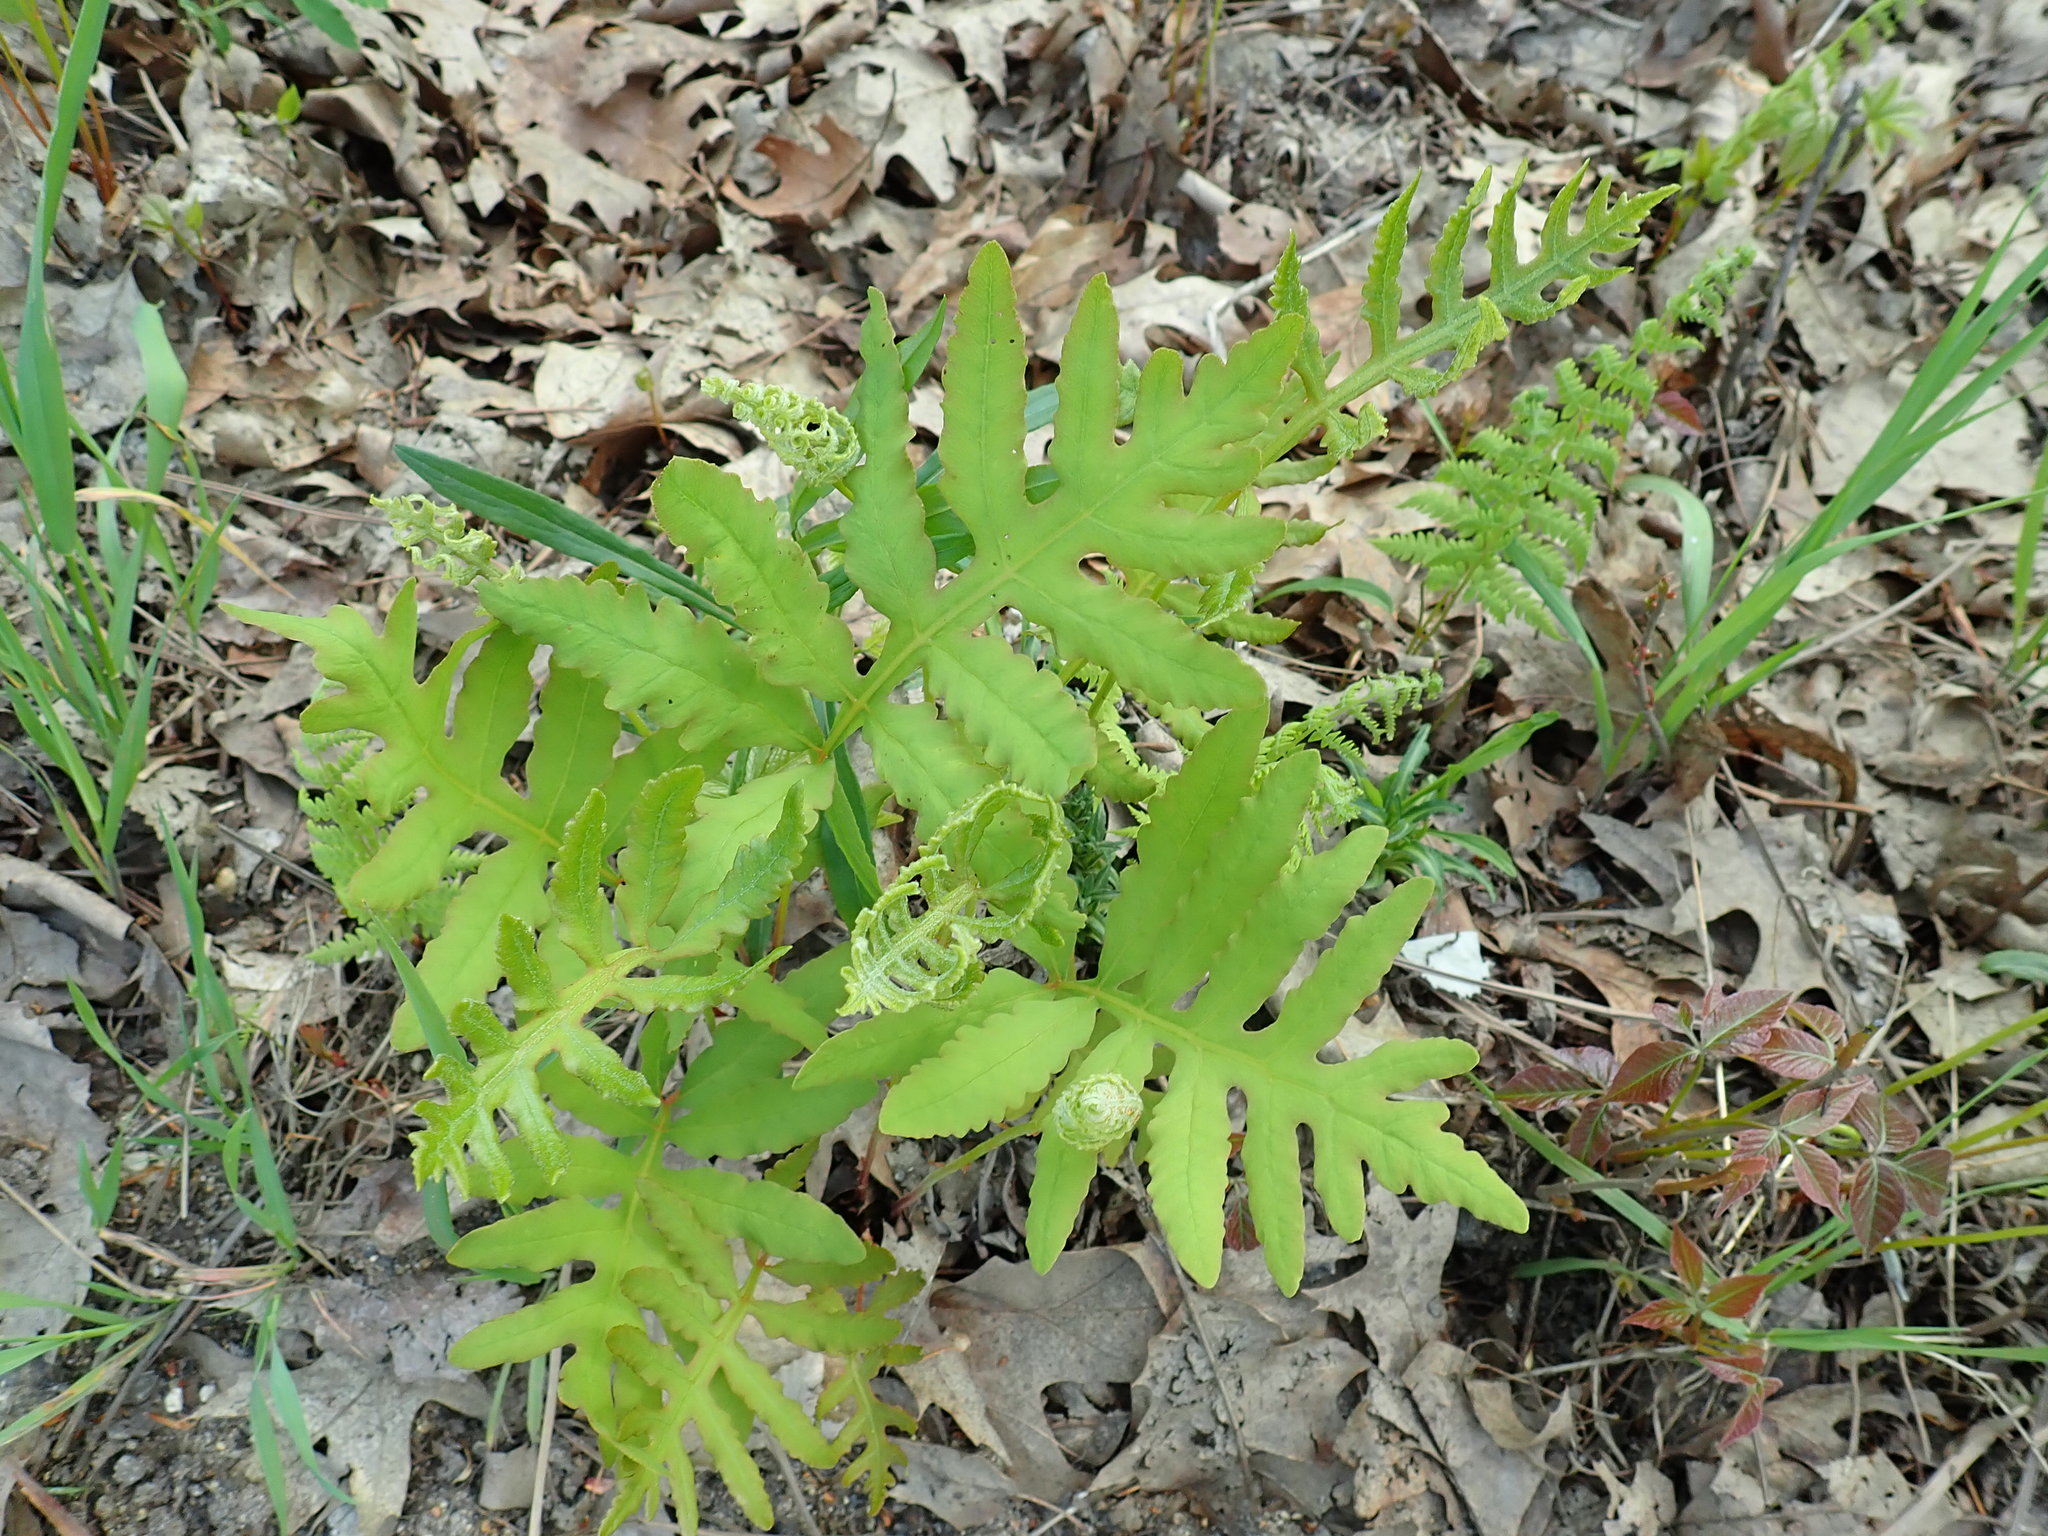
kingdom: Plantae
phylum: Tracheophyta
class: Polypodiopsida
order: Polypodiales
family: Onocleaceae
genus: Onoclea
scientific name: Onoclea sensibilis
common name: Sensitive fern
